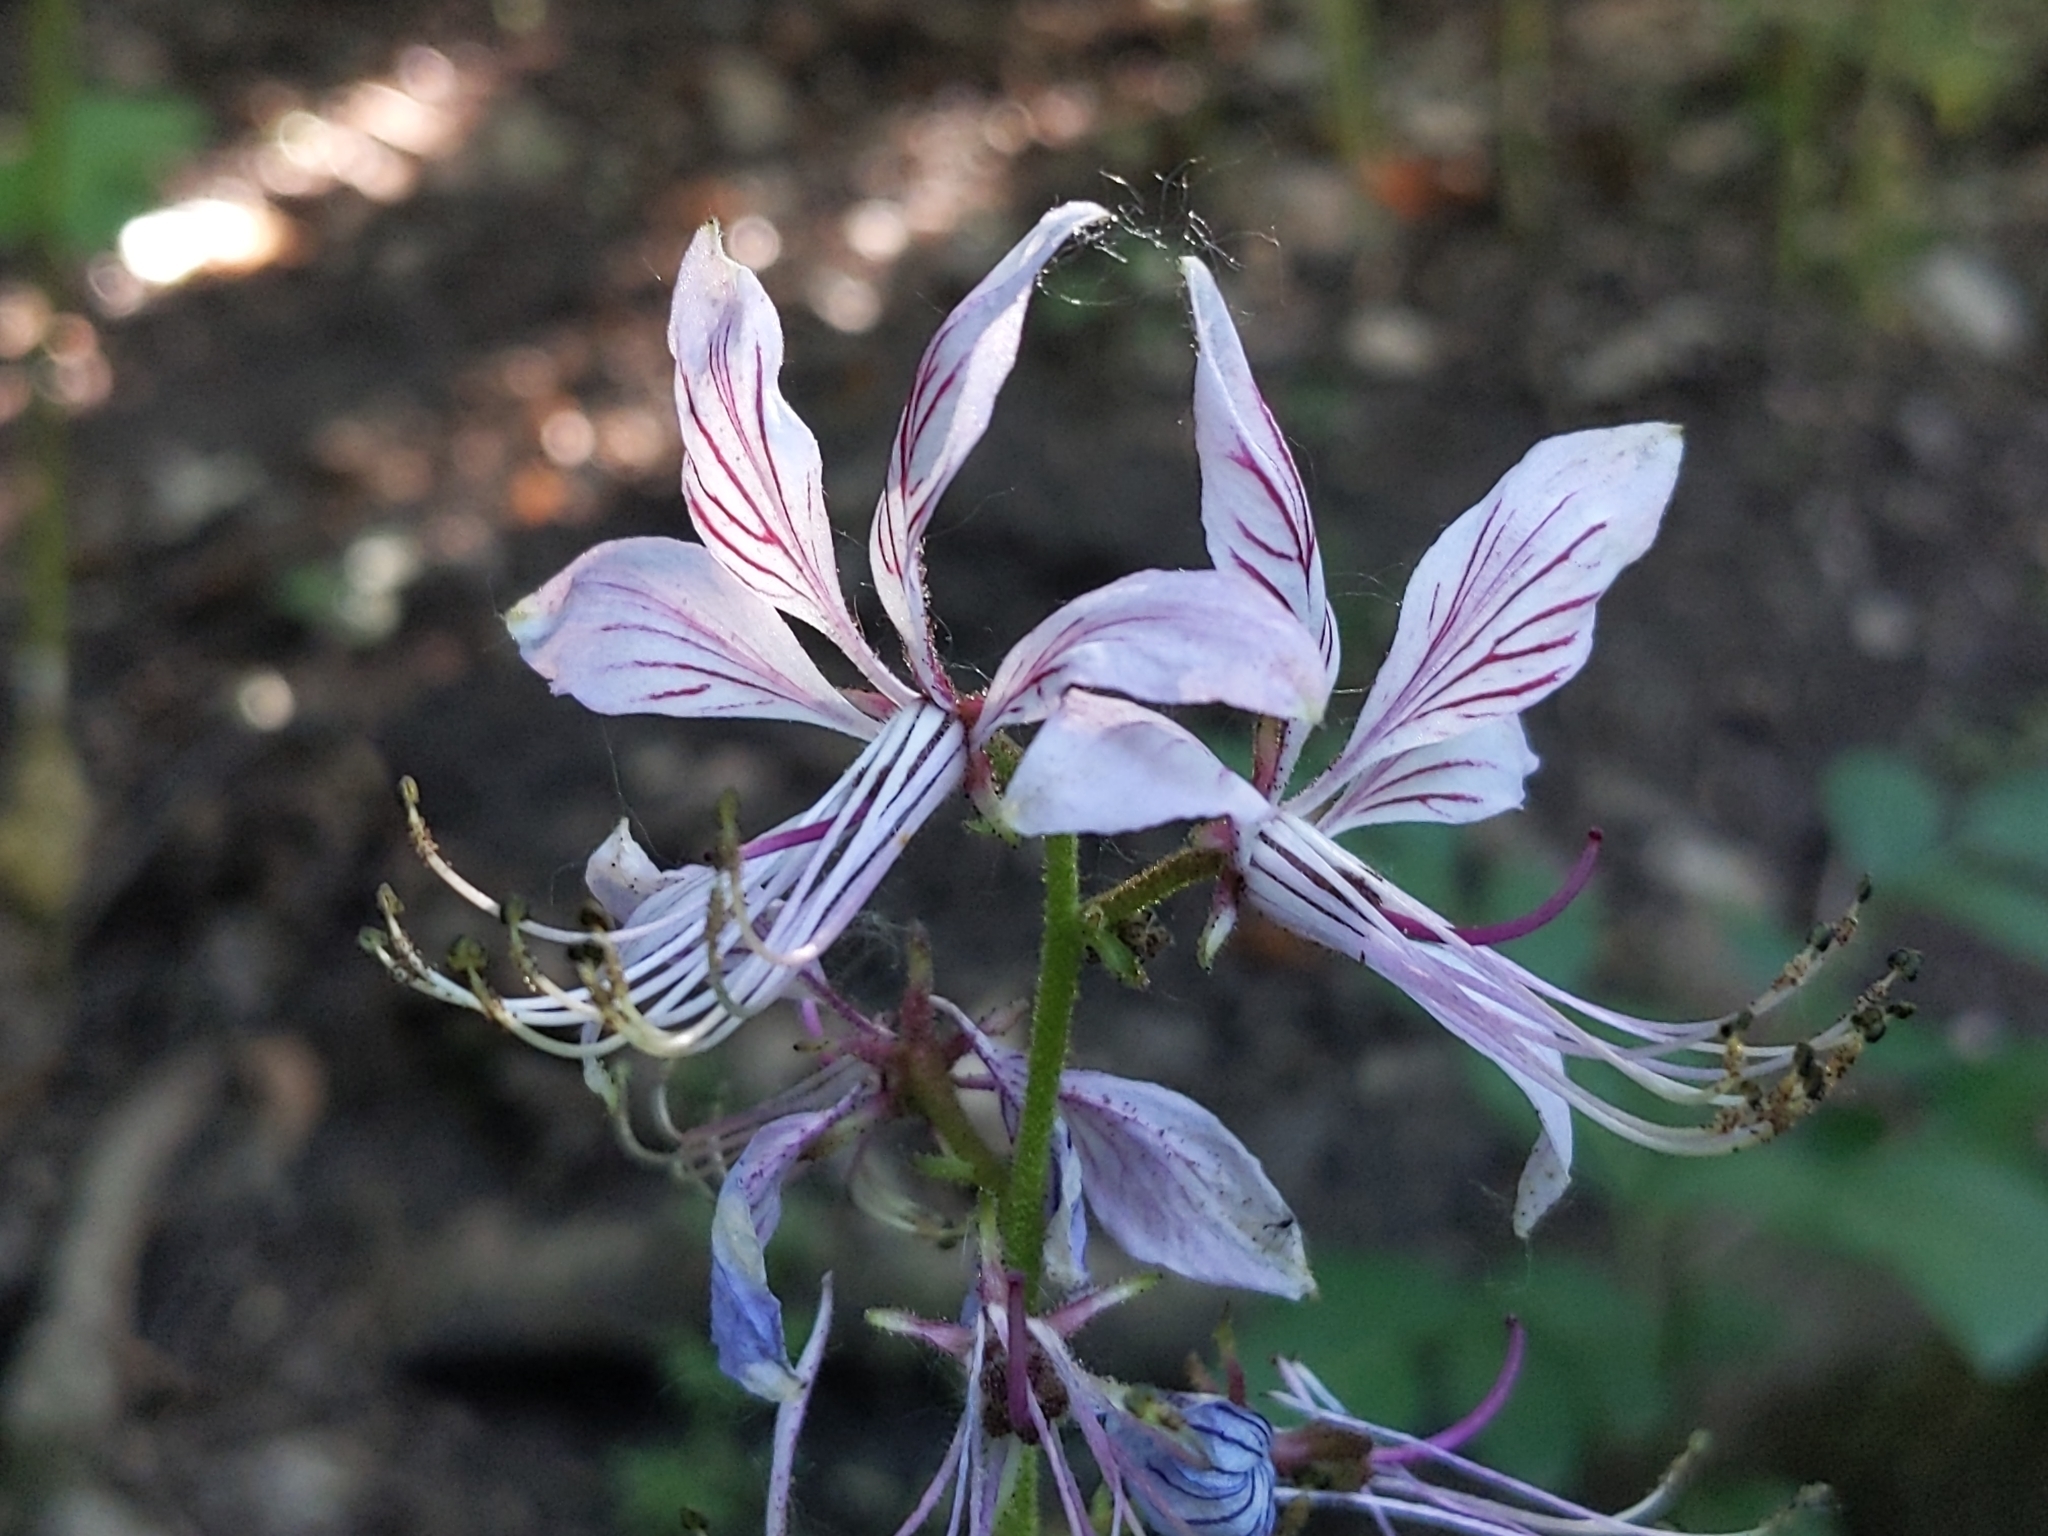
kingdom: Plantae
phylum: Tracheophyta
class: Magnoliopsida
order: Sapindales
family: Rutaceae
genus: Dictamnus
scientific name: Dictamnus albus
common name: Gasplant
